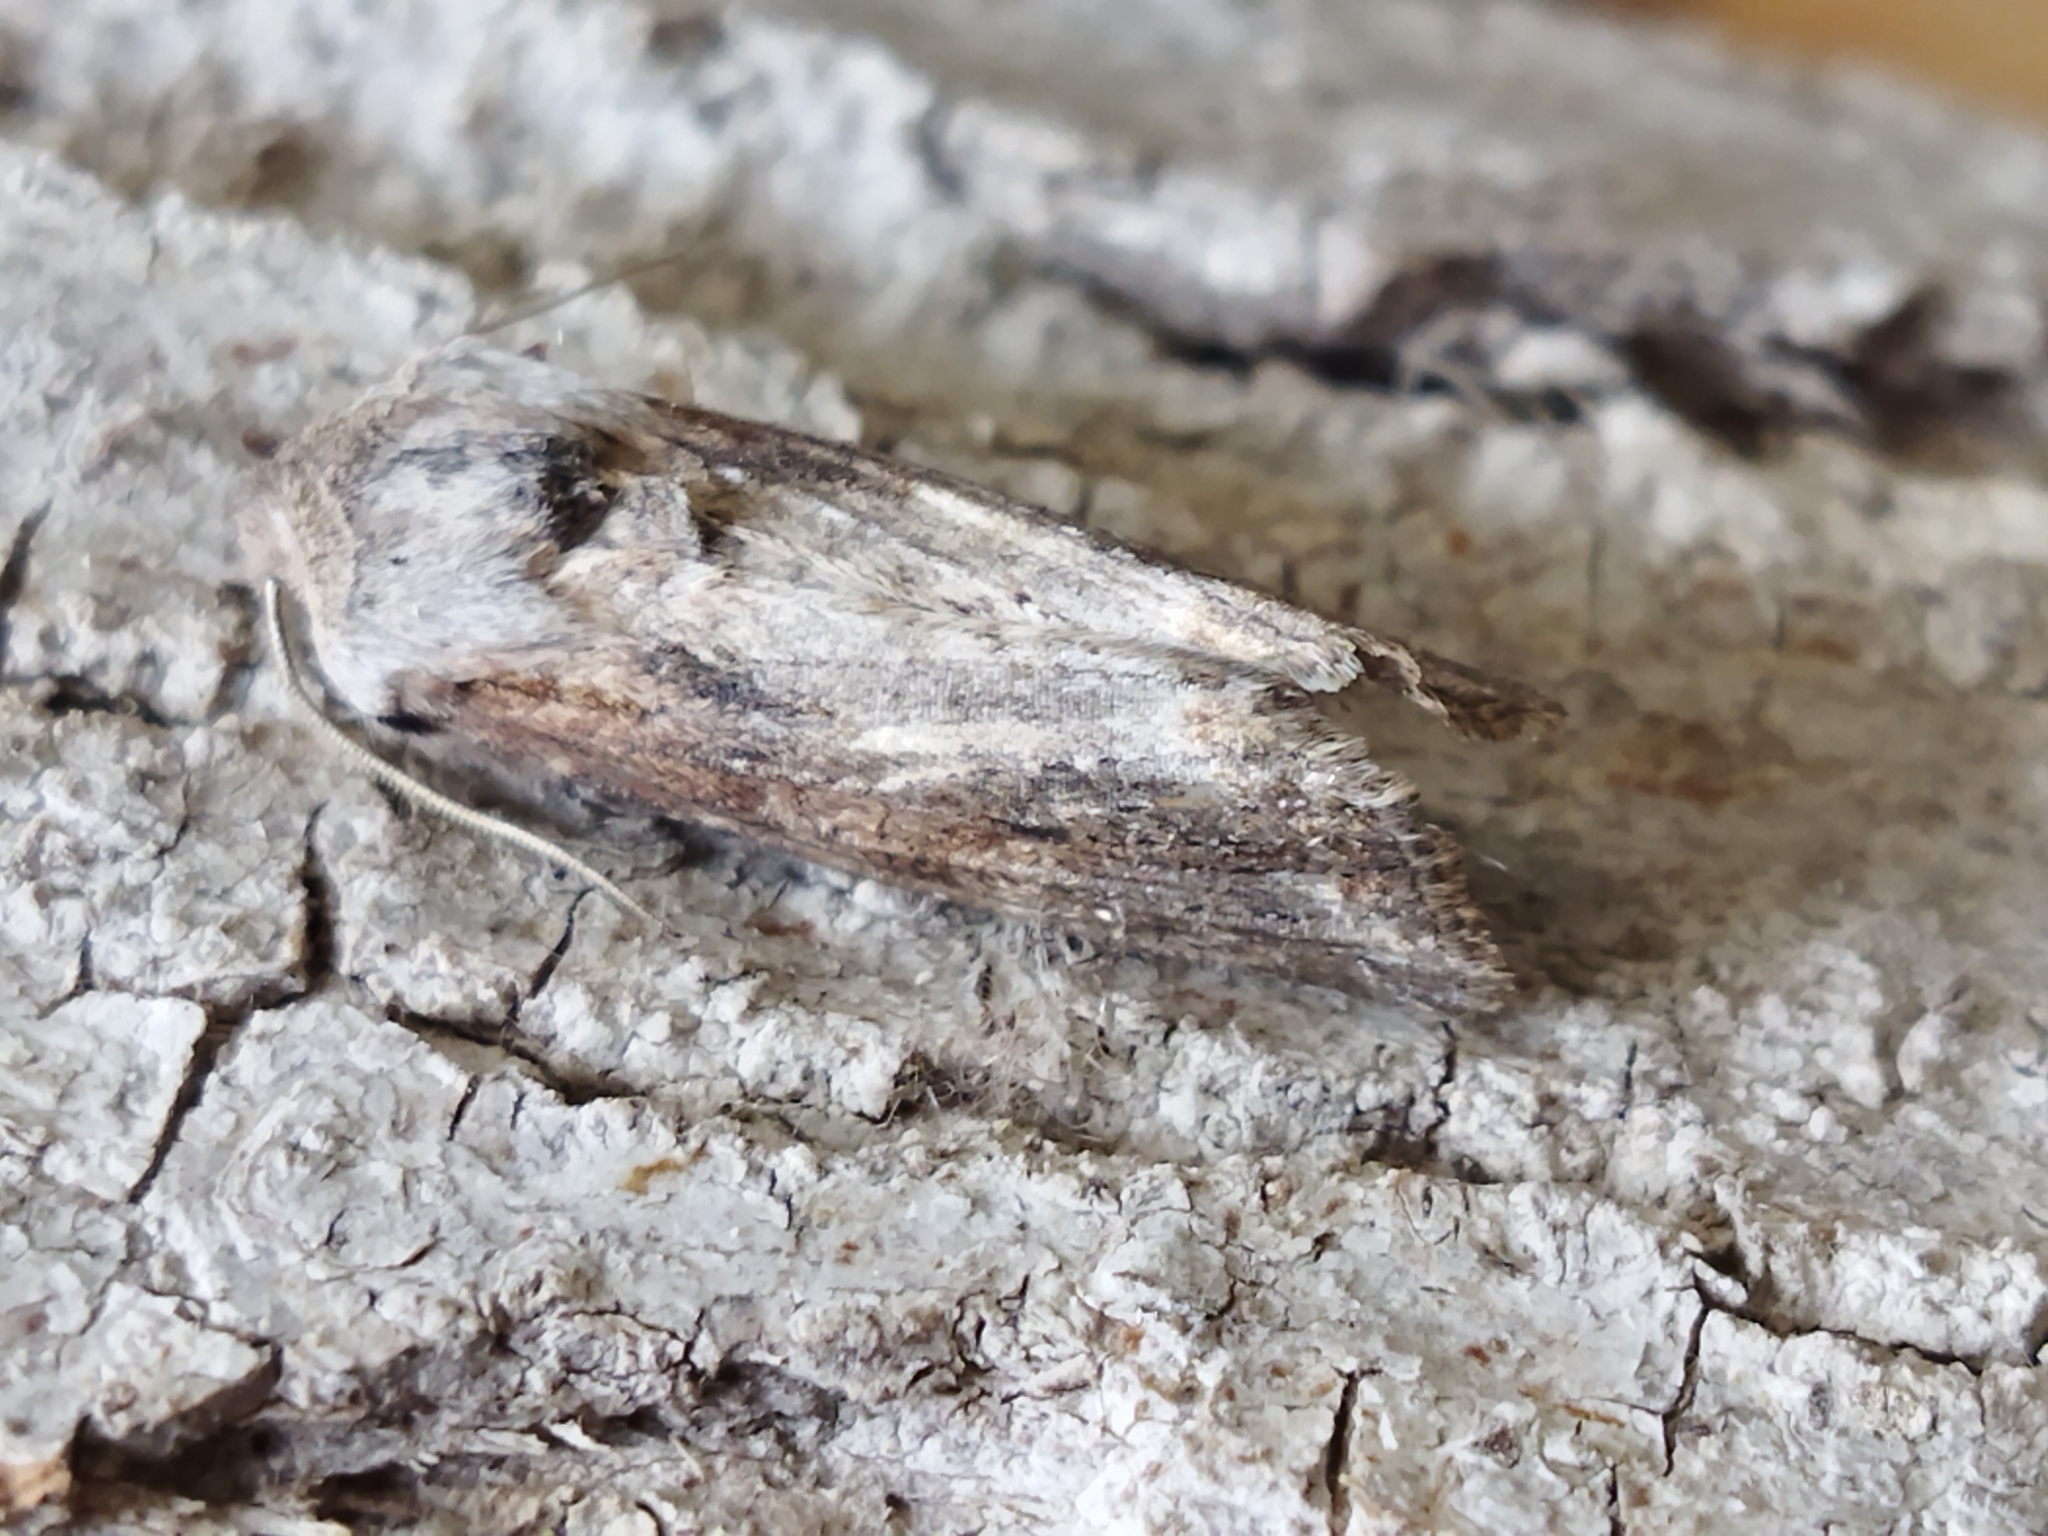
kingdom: Animalia
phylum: Arthropoda
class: Insecta
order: Lepidoptera
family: Noctuidae
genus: Egira
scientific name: Egira
